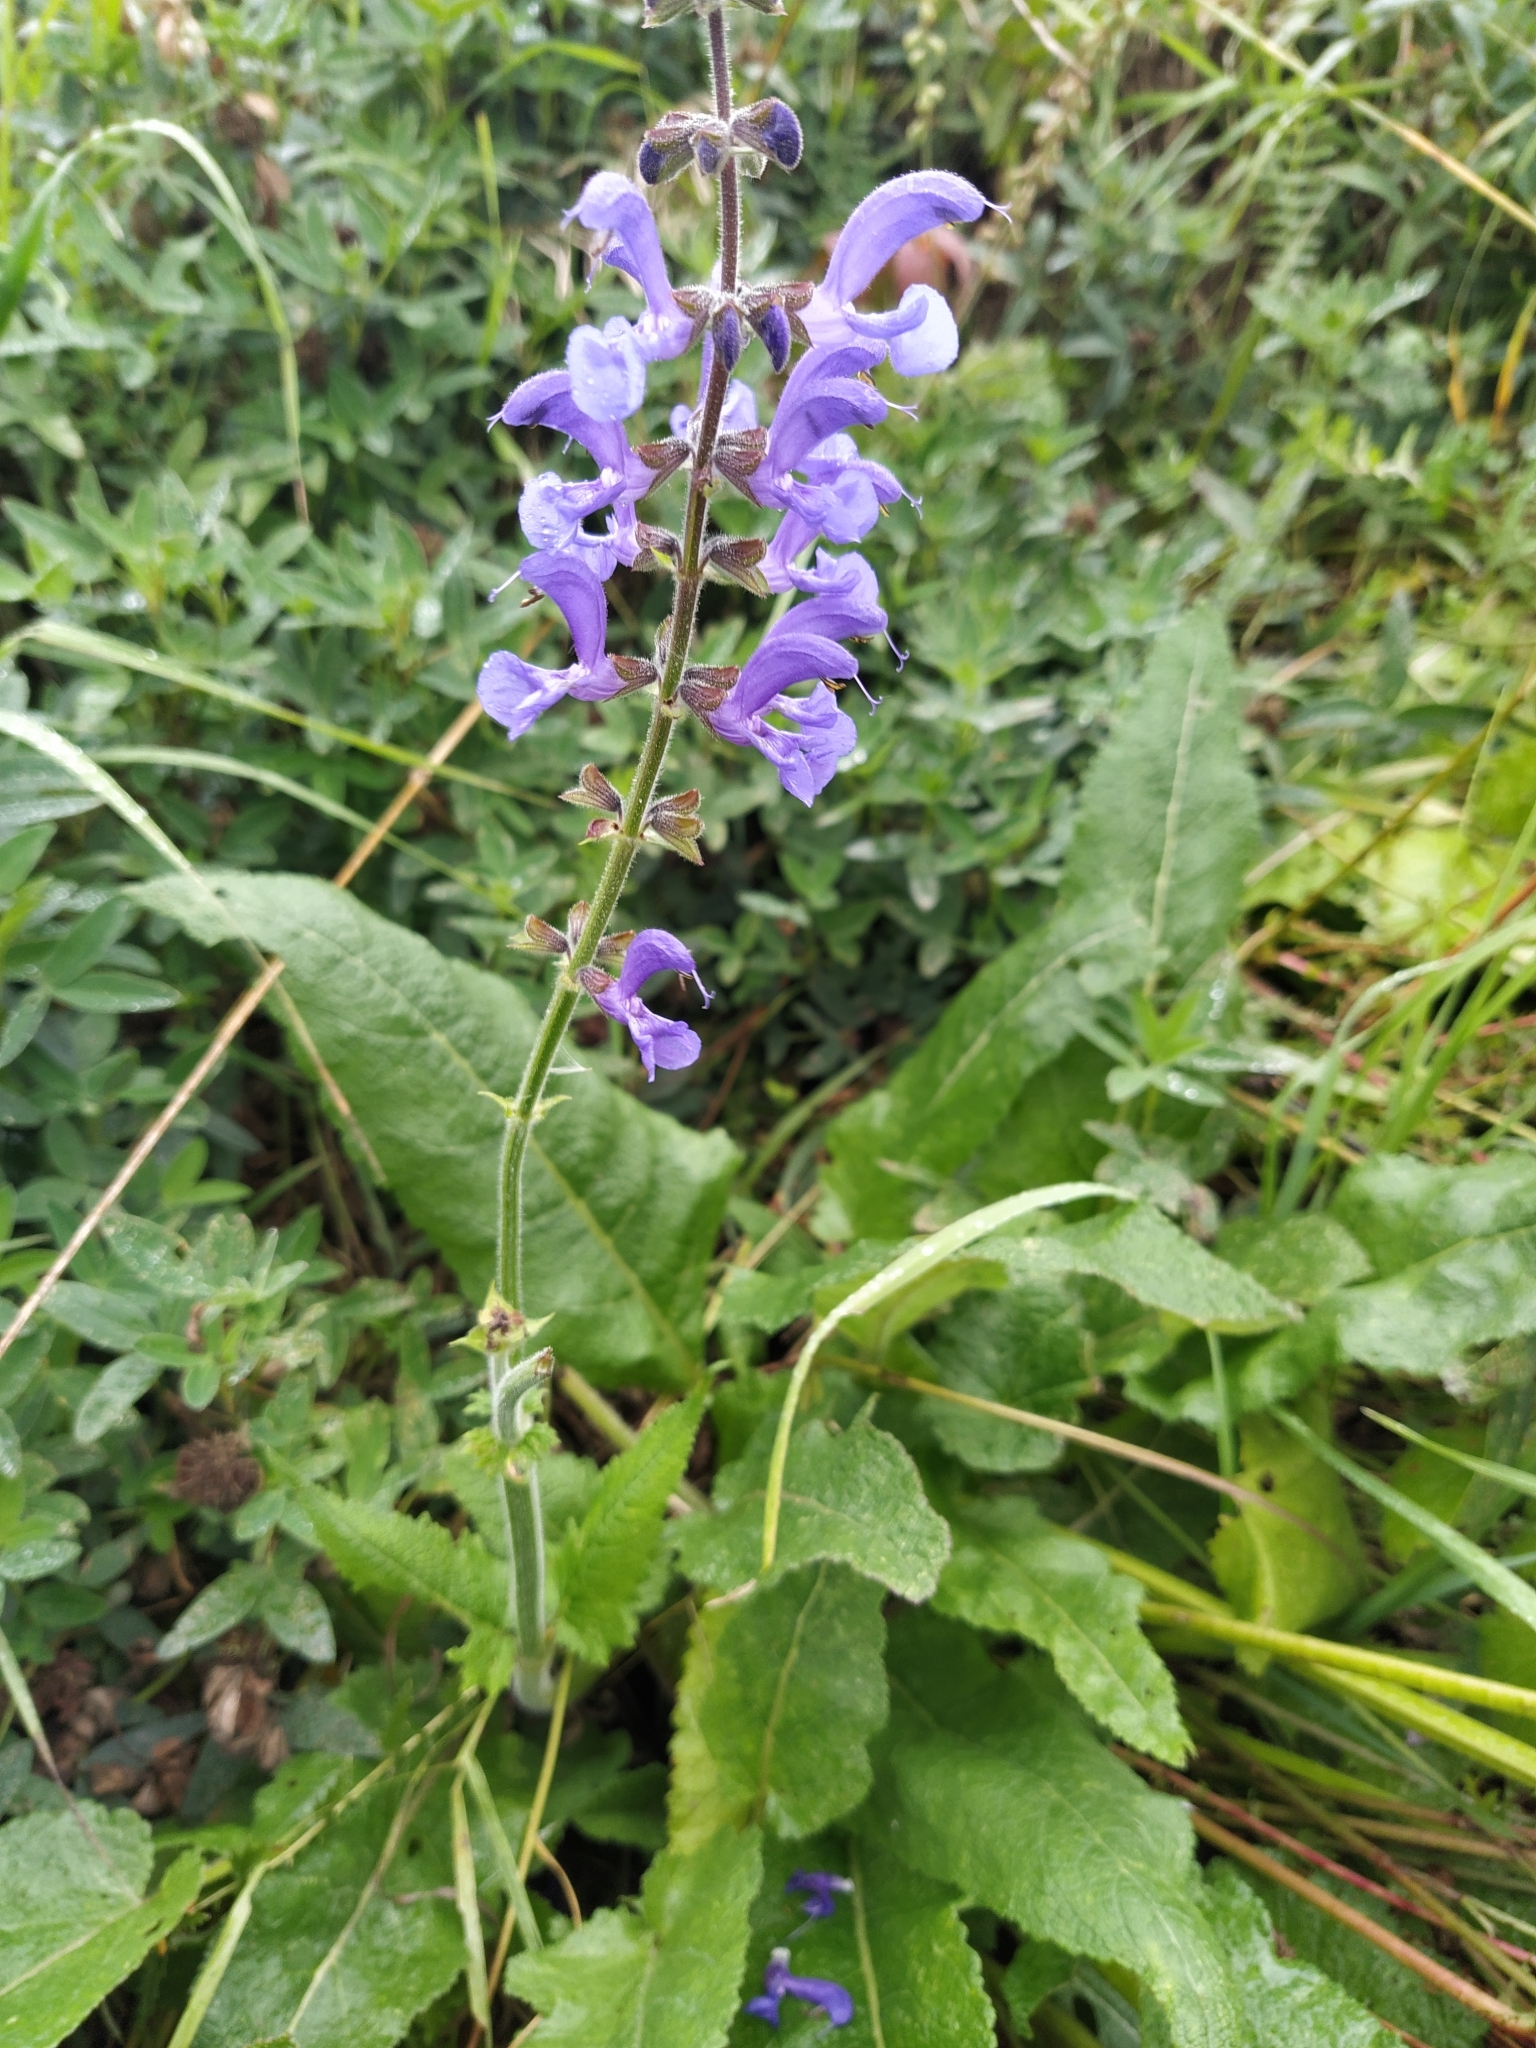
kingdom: Plantae
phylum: Tracheophyta
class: Magnoliopsida
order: Lamiales
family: Lamiaceae
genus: Salvia
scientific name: Salvia pratensis
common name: Meadow sage
